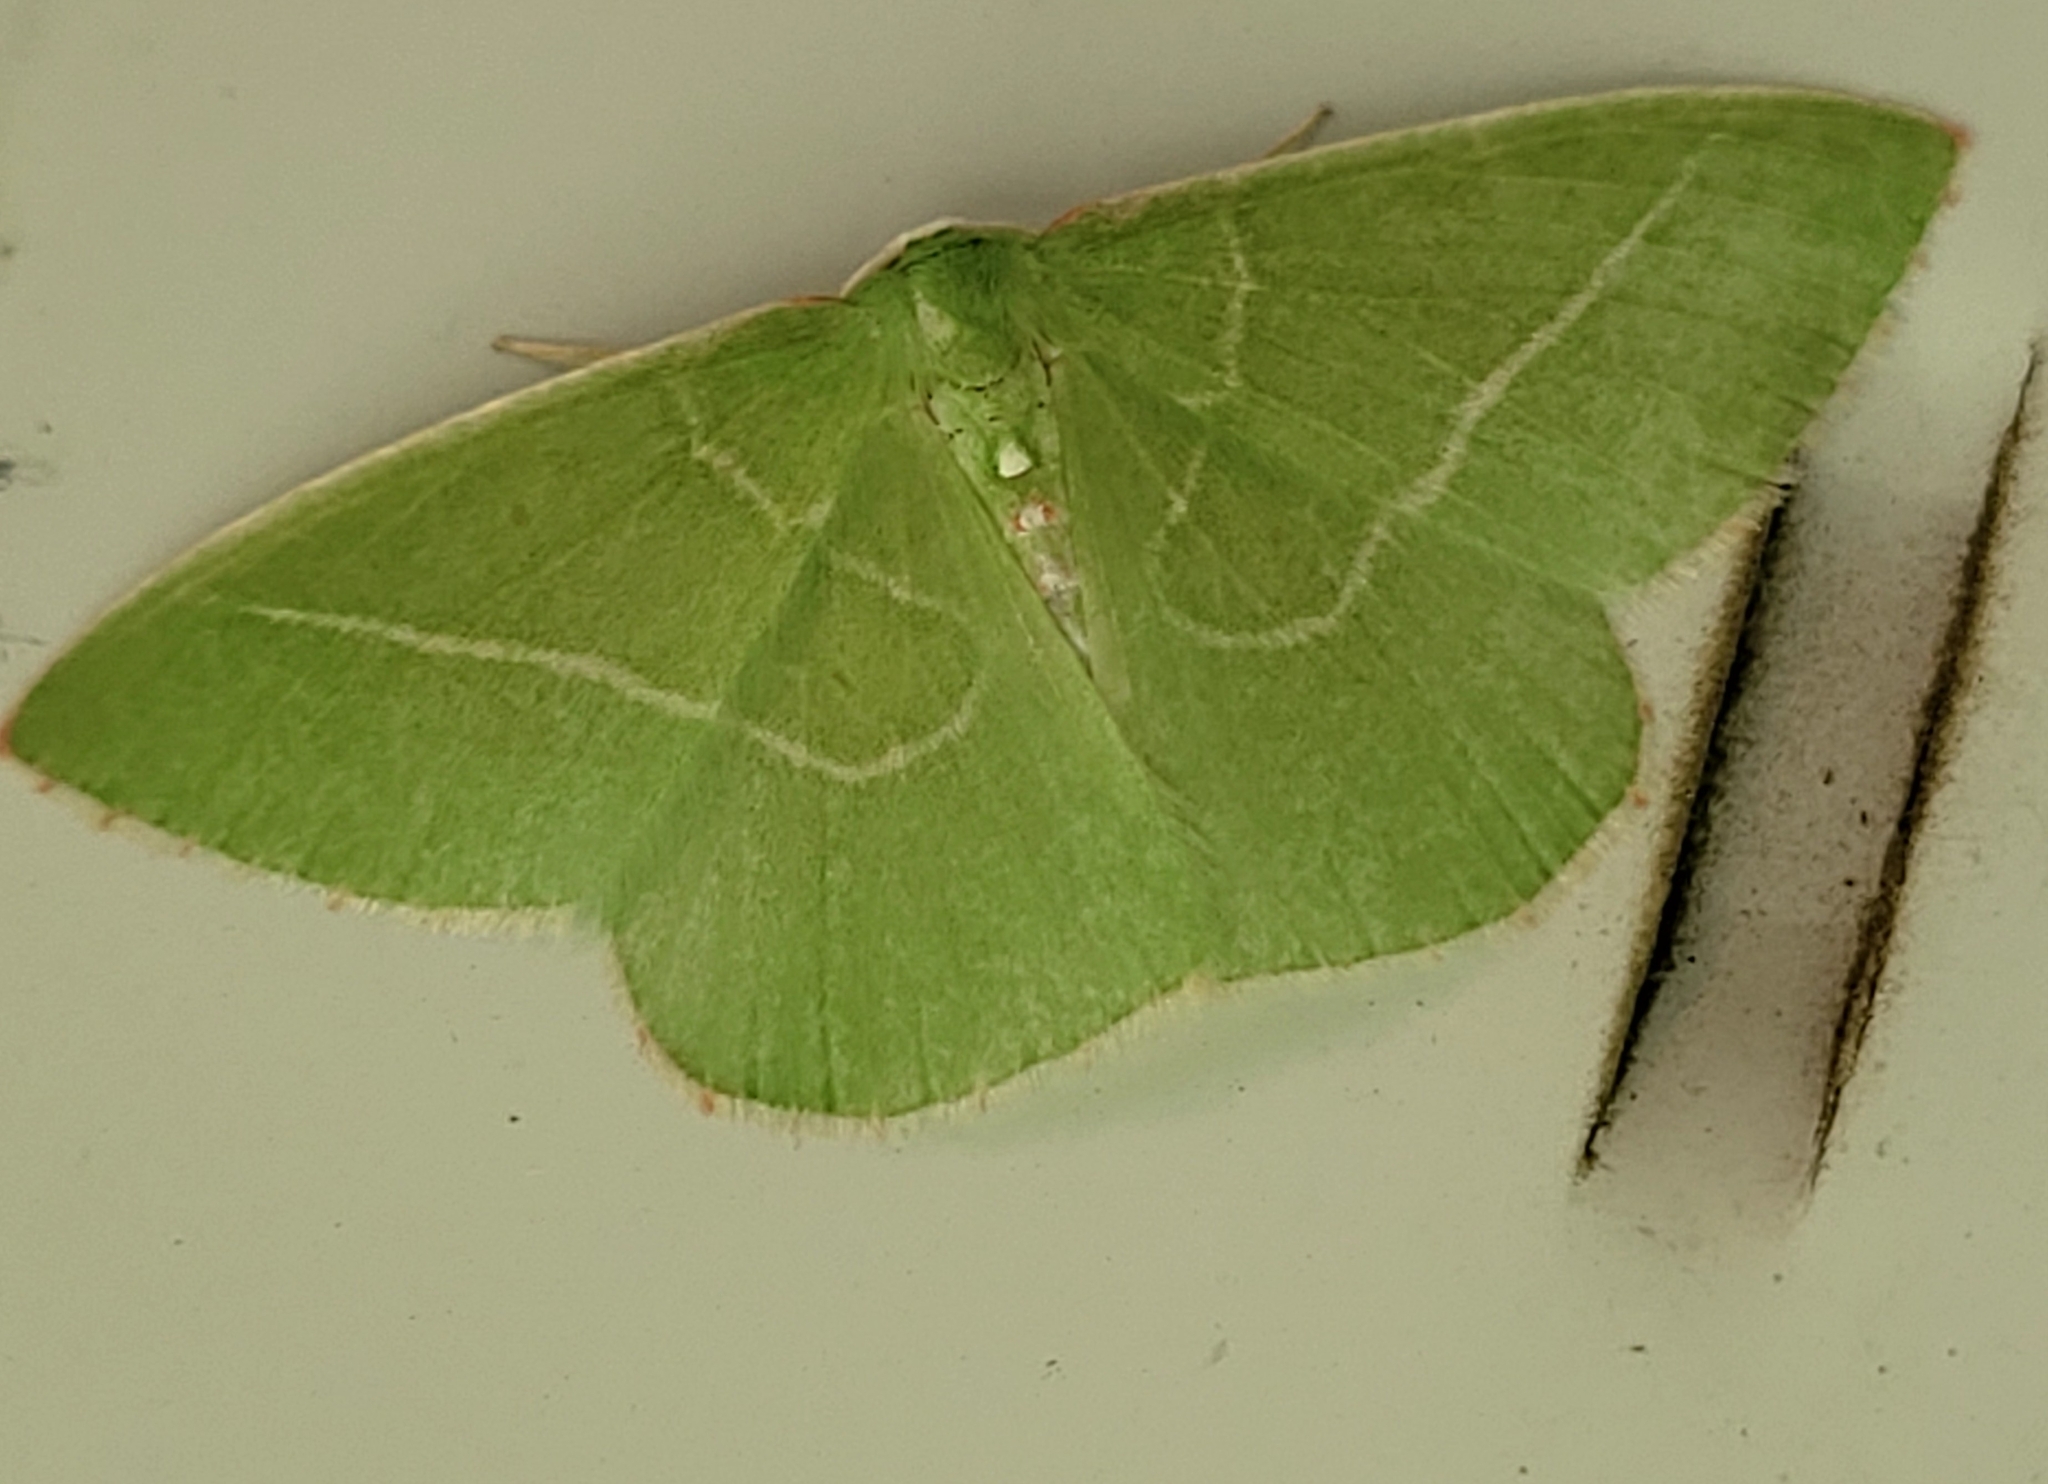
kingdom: Animalia
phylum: Arthropoda
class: Insecta
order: Lepidoptera
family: Geometridae
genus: Nemoria
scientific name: Nemoria unitaria
